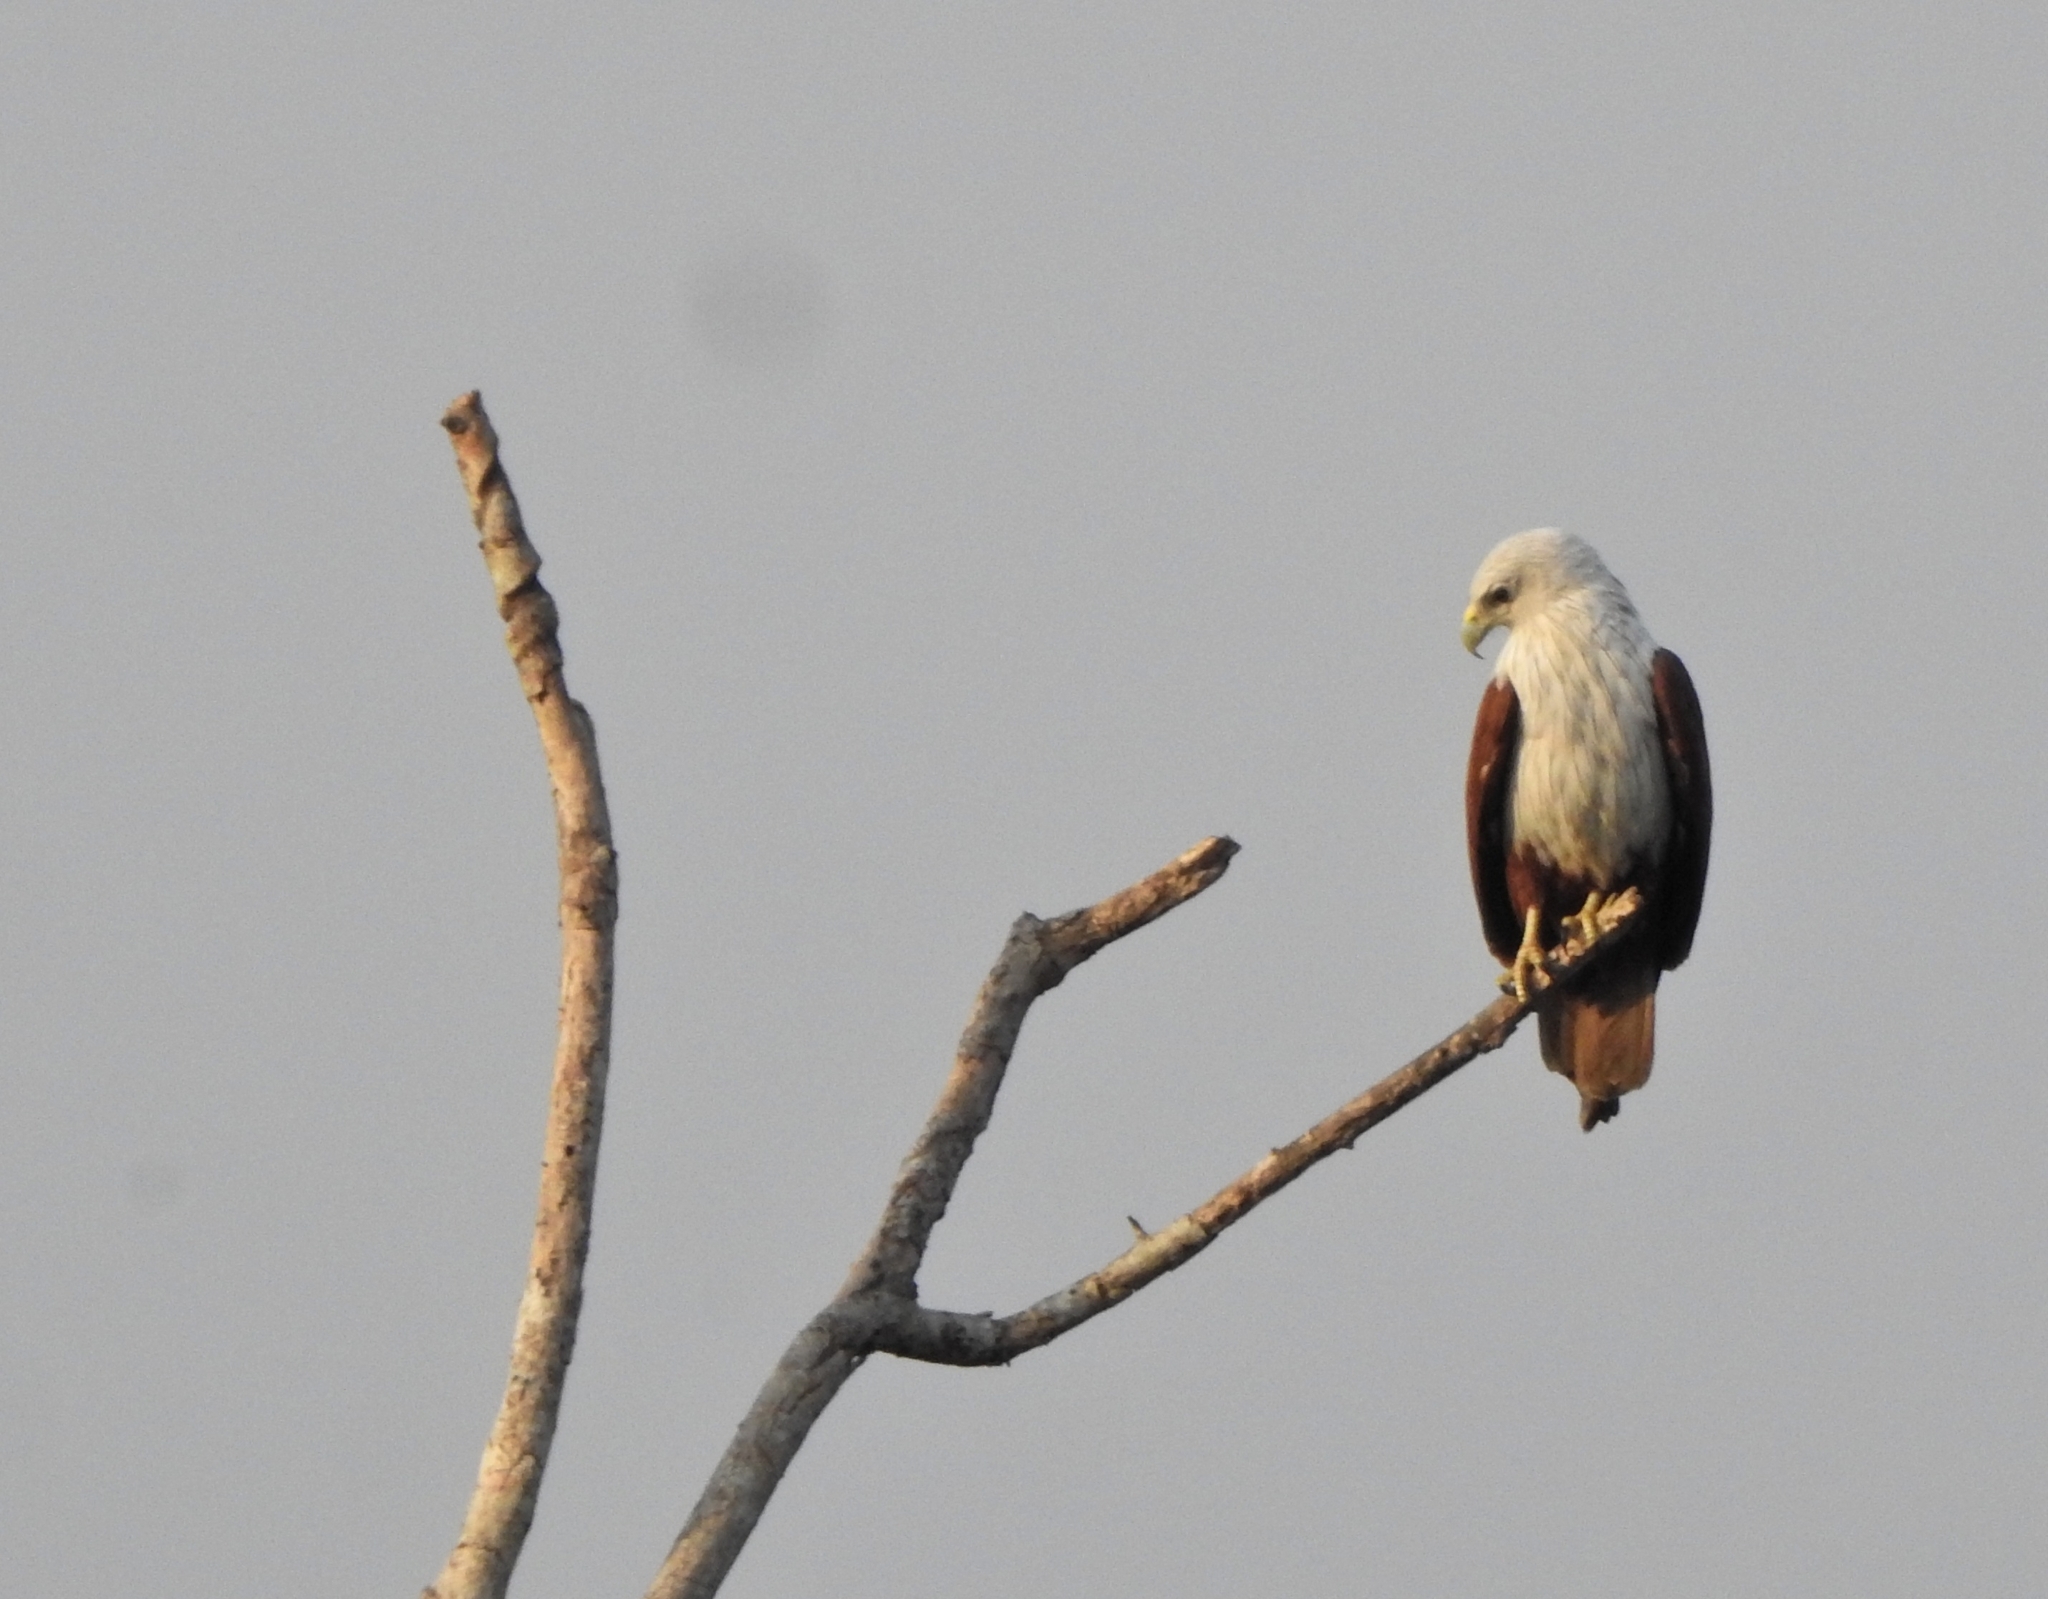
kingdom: Animalia
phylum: Chordata
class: Aves
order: Accipitriformes
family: Accipitridae
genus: Haliastur
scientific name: Haliastur indus
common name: Brahminy kite
